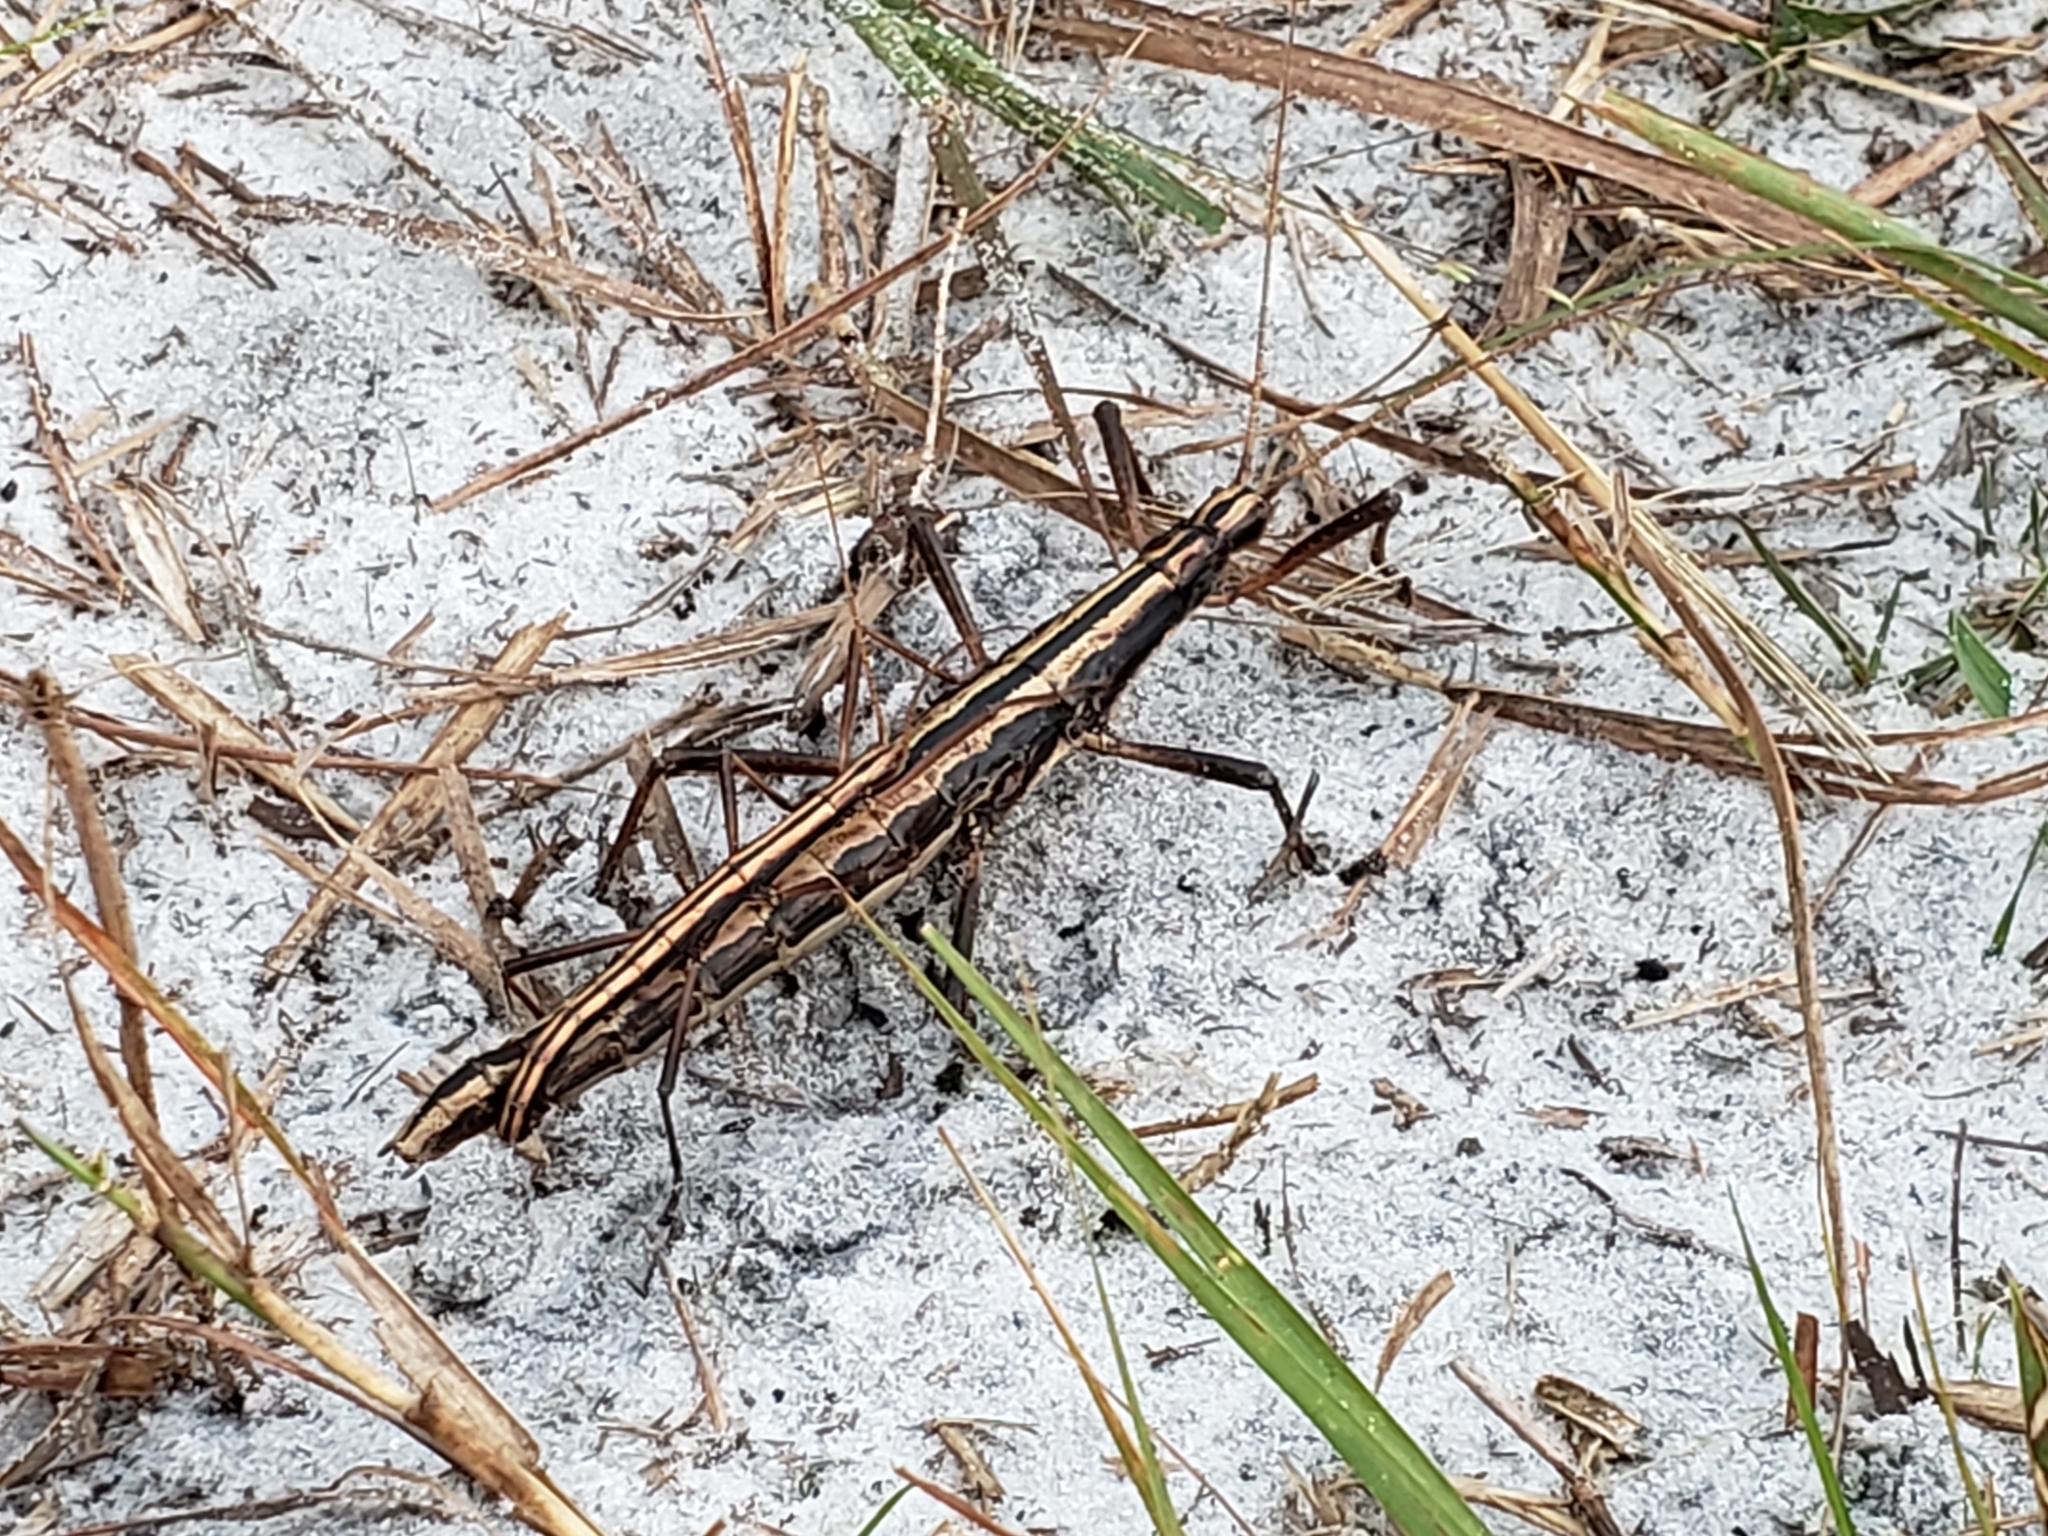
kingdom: Animalia
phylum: Arthropoda
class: Insecta
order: Phasmida
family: Pseudophasmatidae
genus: Anisomorpha
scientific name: Anisomorpha buprestoides
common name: Florida stick insect
